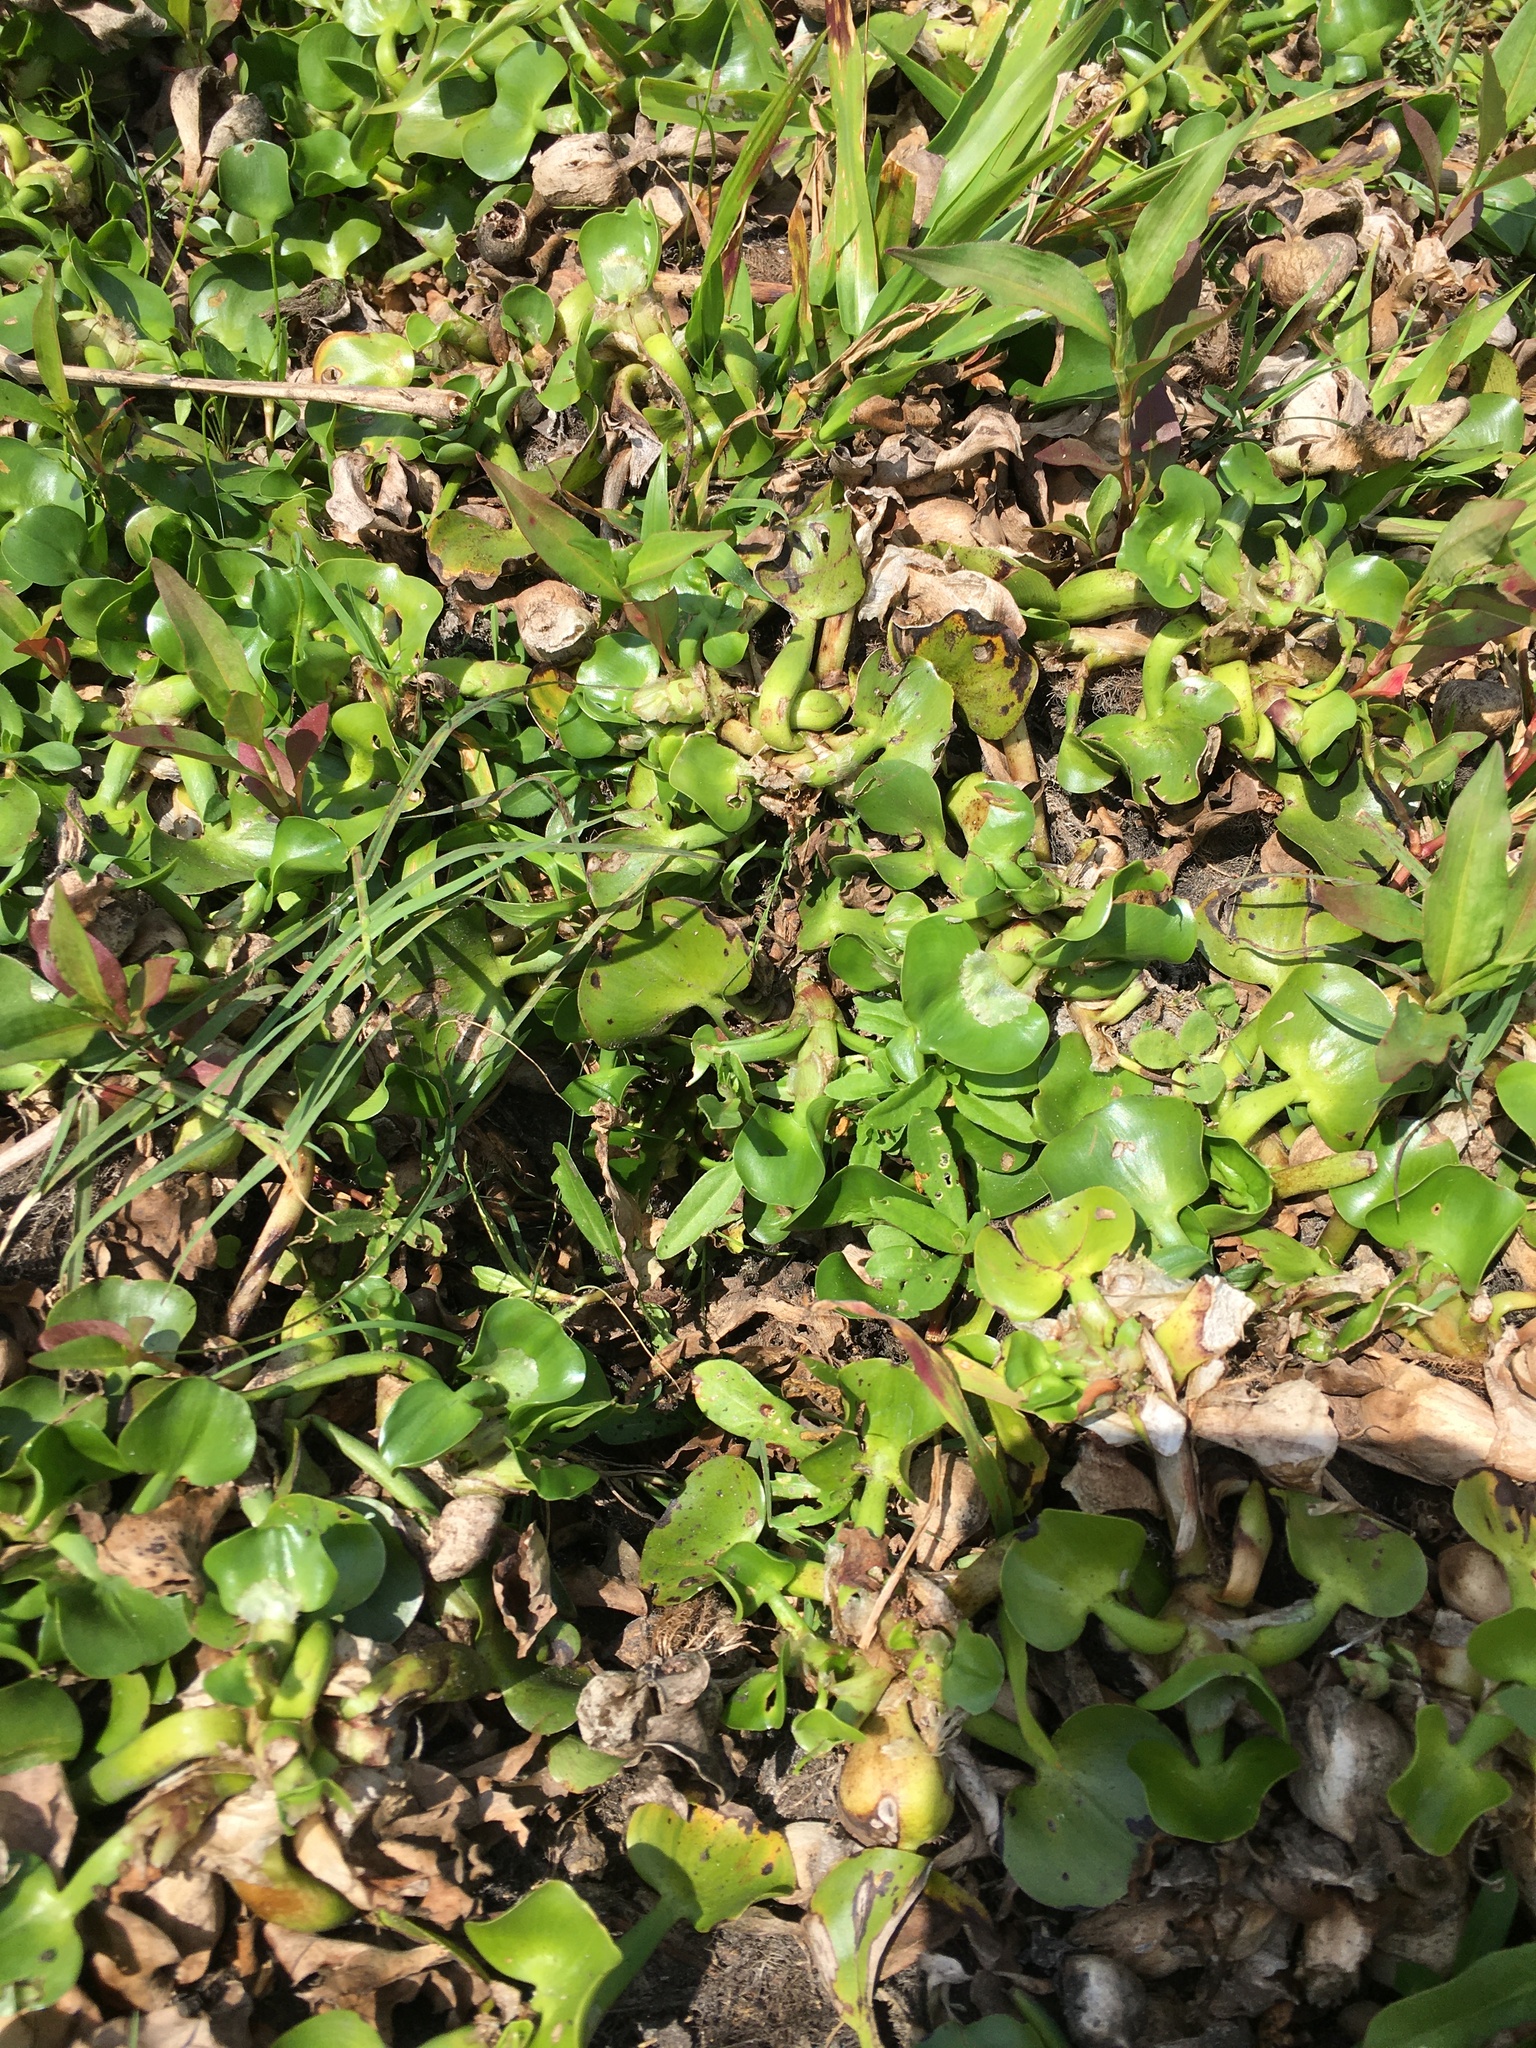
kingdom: Plantae
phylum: Tracheophyta
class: Liliopsida
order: Commelinales
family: Pontederiaceae
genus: Pontederia
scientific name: Pontederia crassipes
